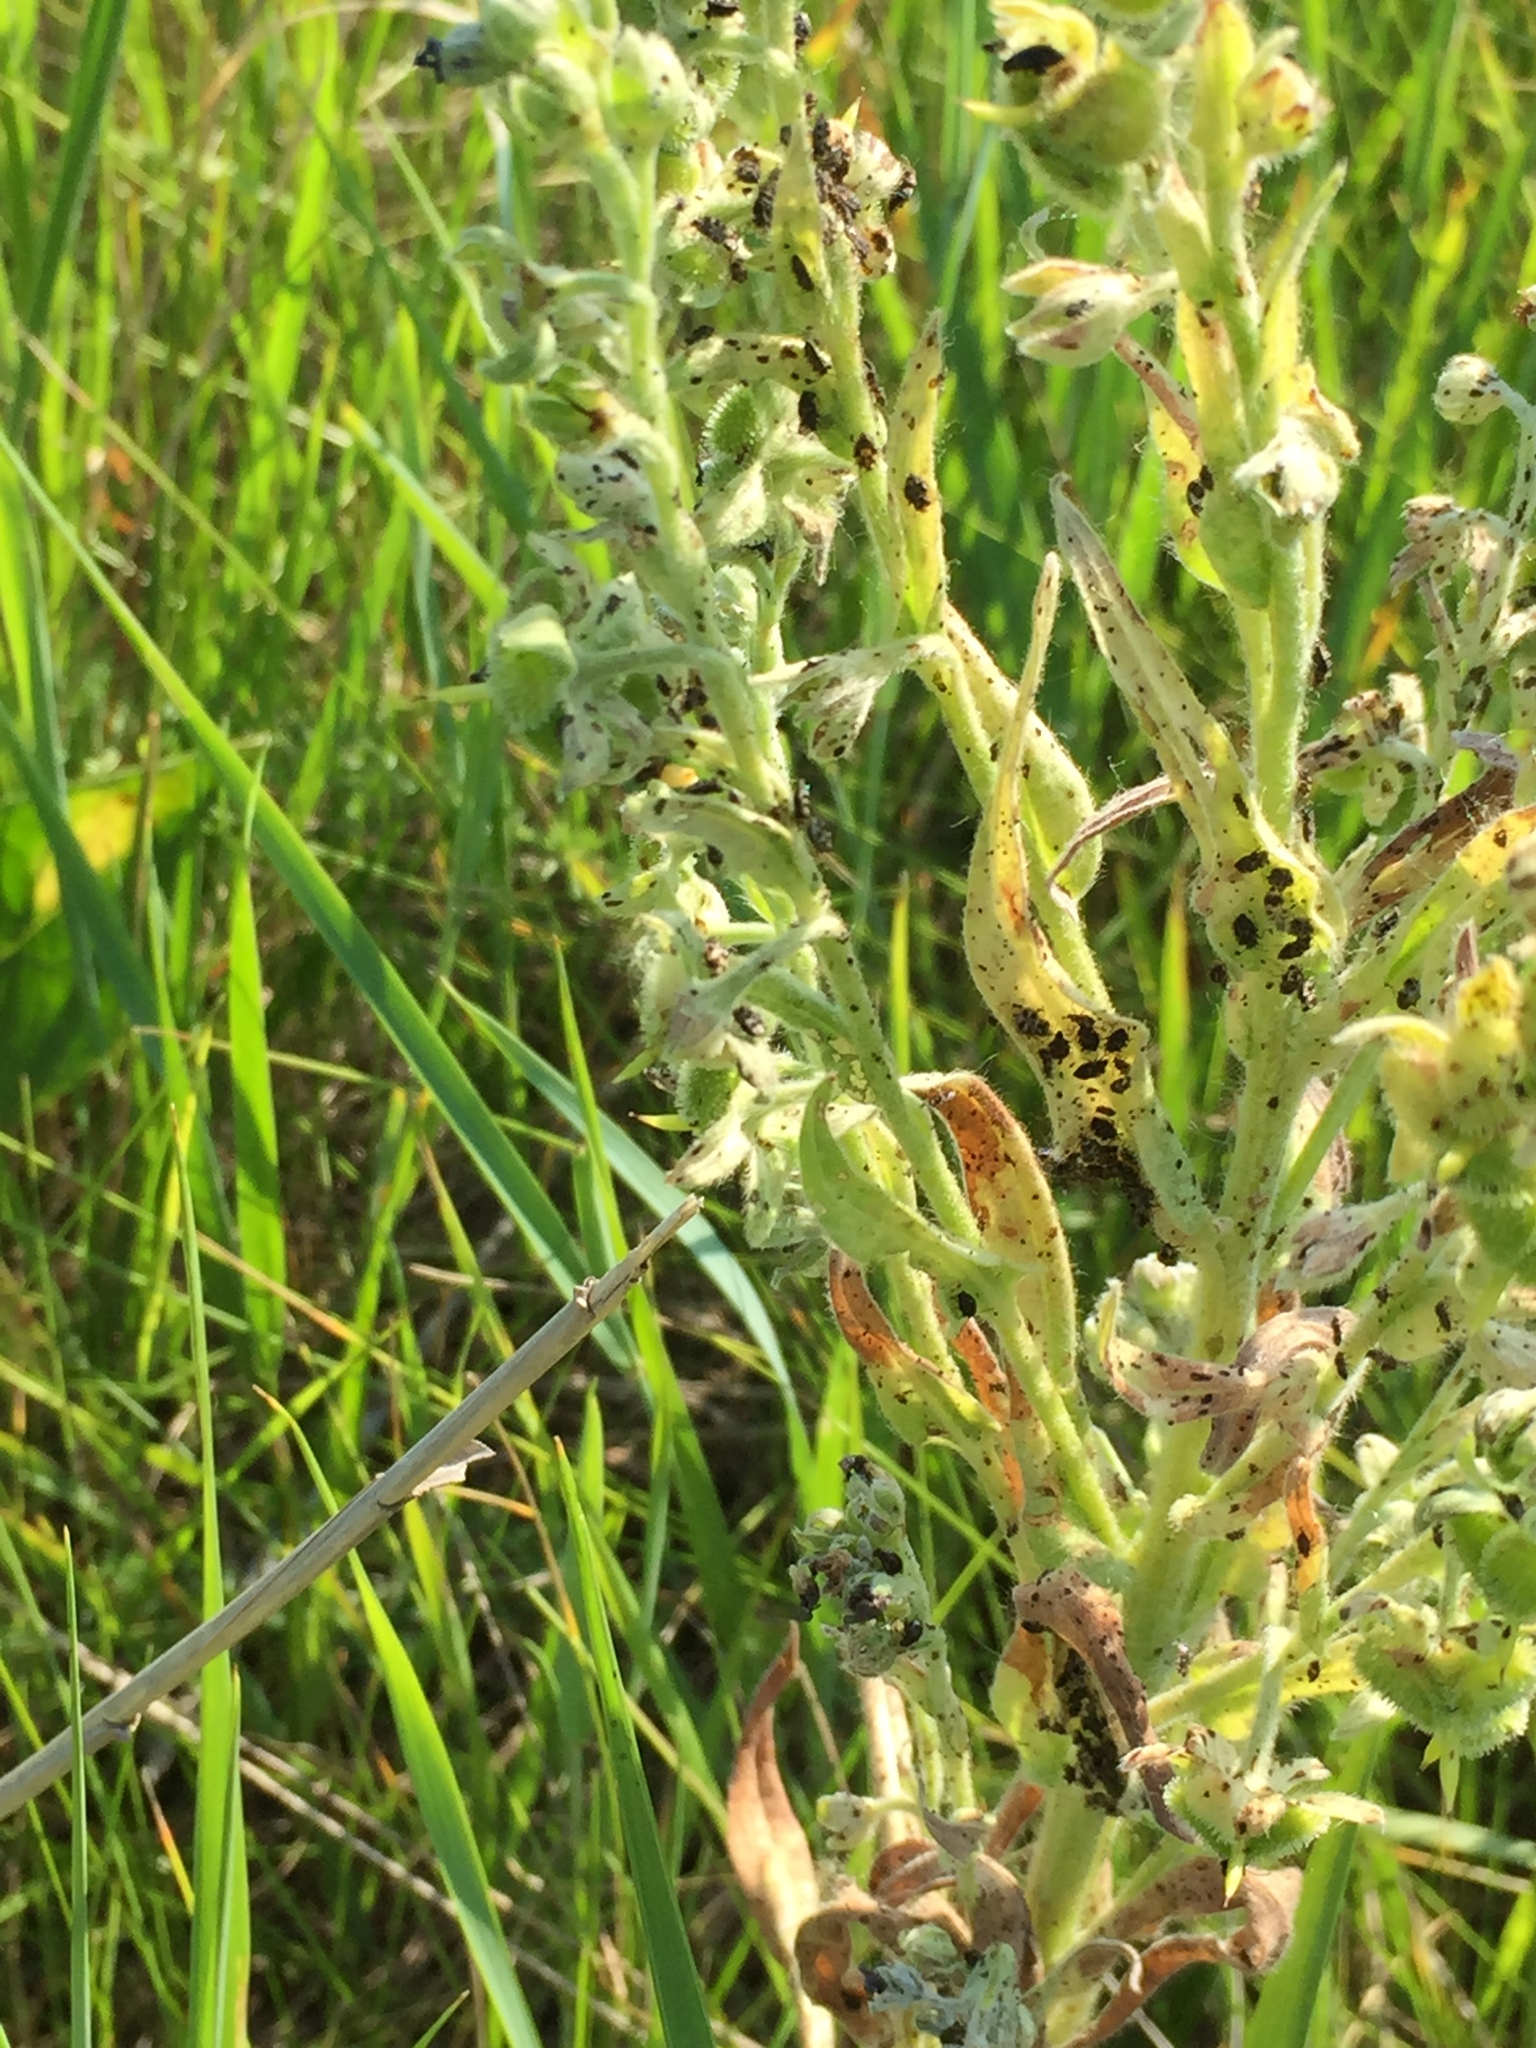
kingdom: Plantae
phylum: Tracheophyta
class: Magnoliopsida
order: Boraginales
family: Boraginaceae
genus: Cynoglossum
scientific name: Cynoglossum officinale
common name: Hound's-tongue
